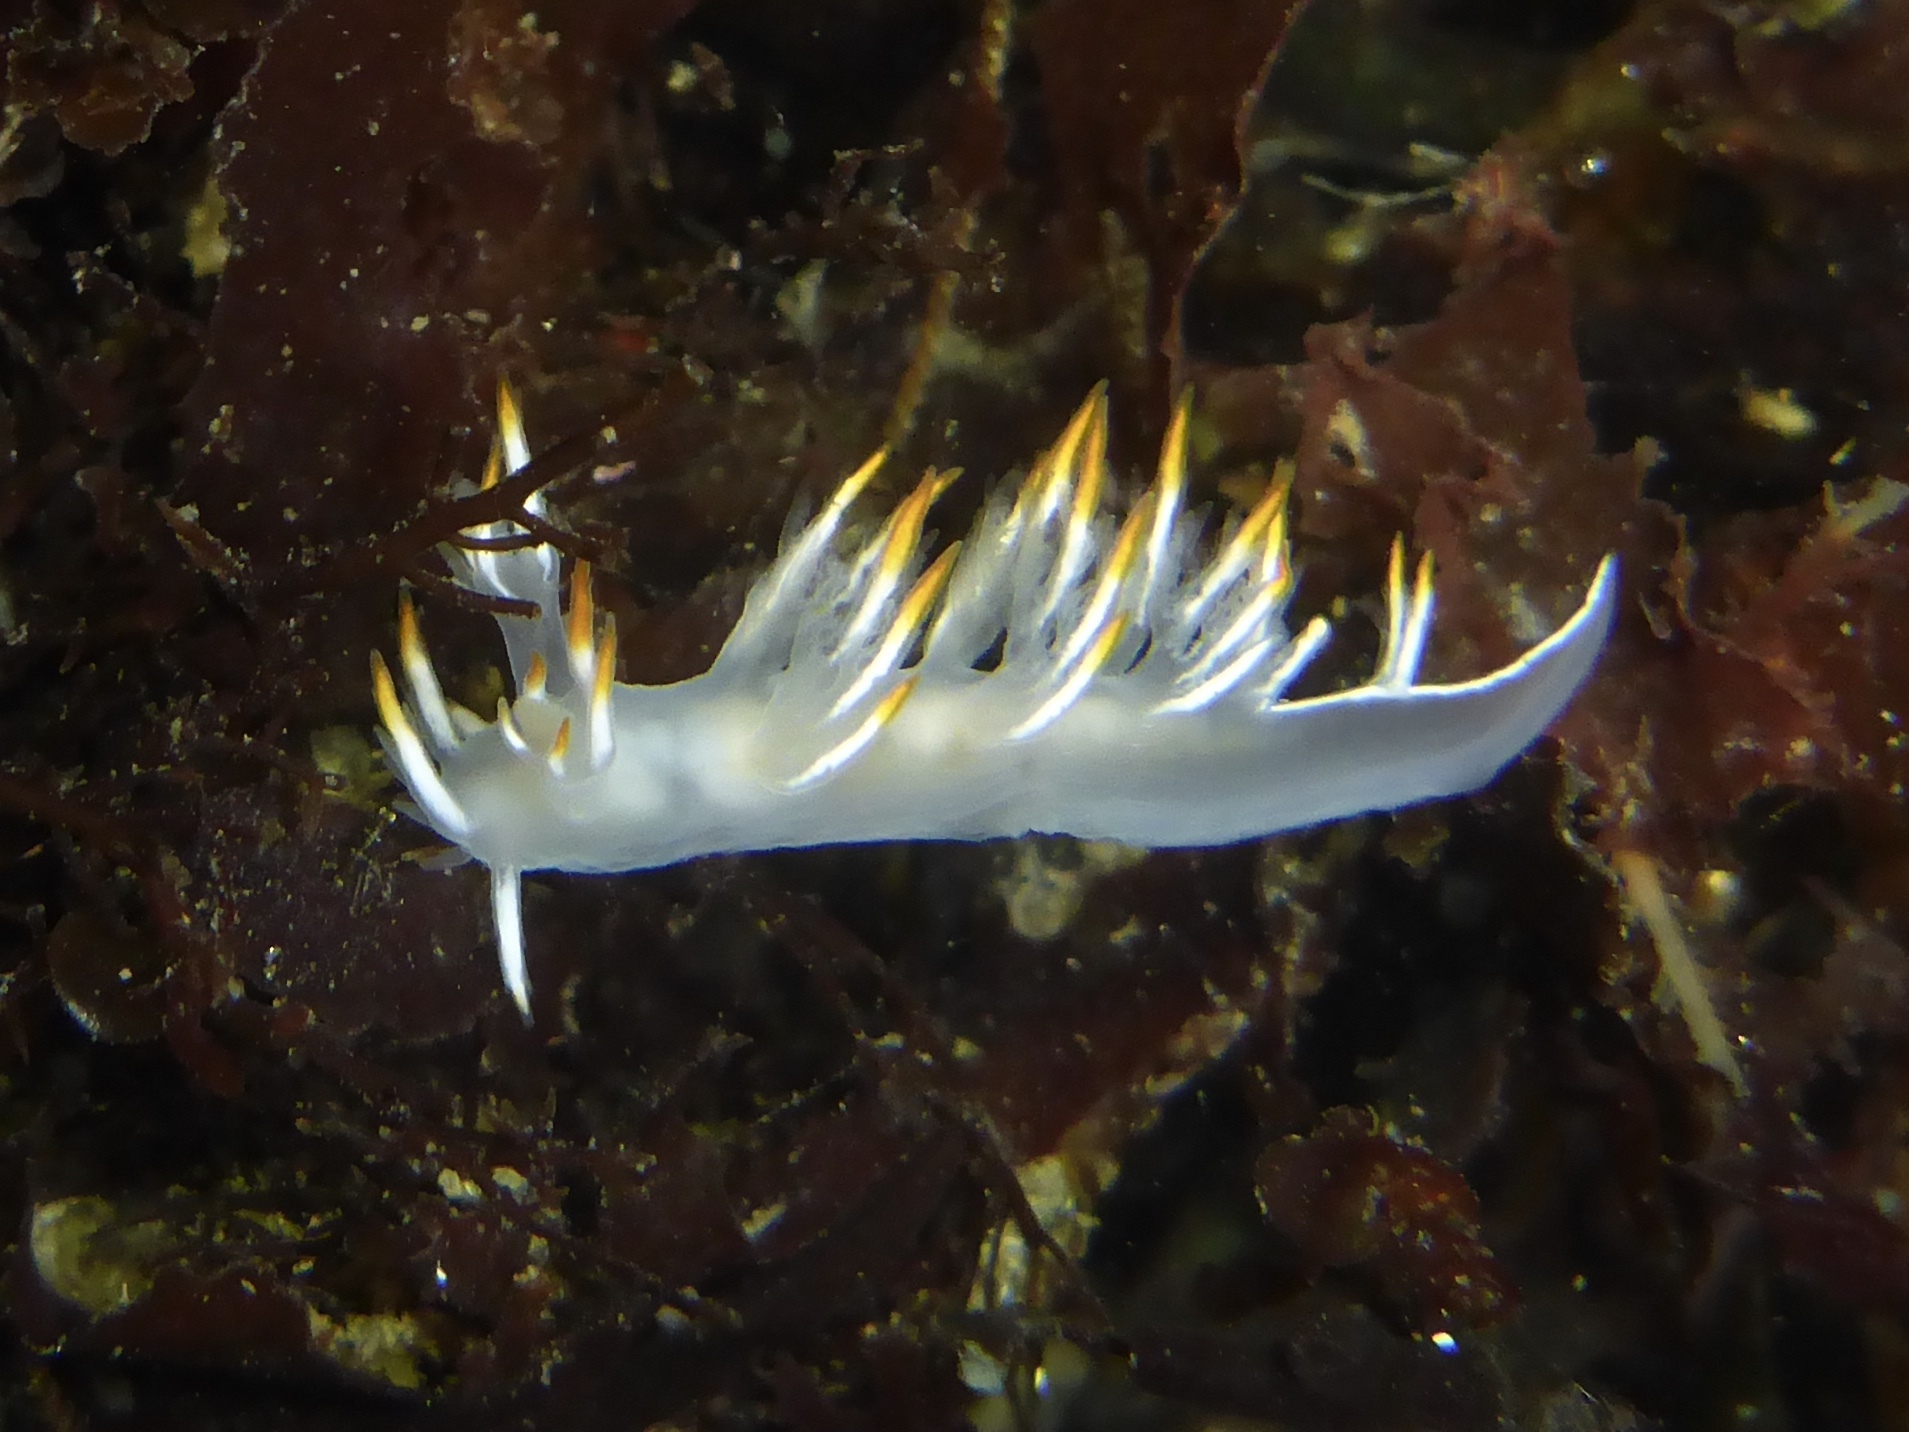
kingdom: Animalia
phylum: Mollusca
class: Gastropoda
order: Nudibranchia
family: Dendronotidae
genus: Dendronotus
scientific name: Dendronotus albus
